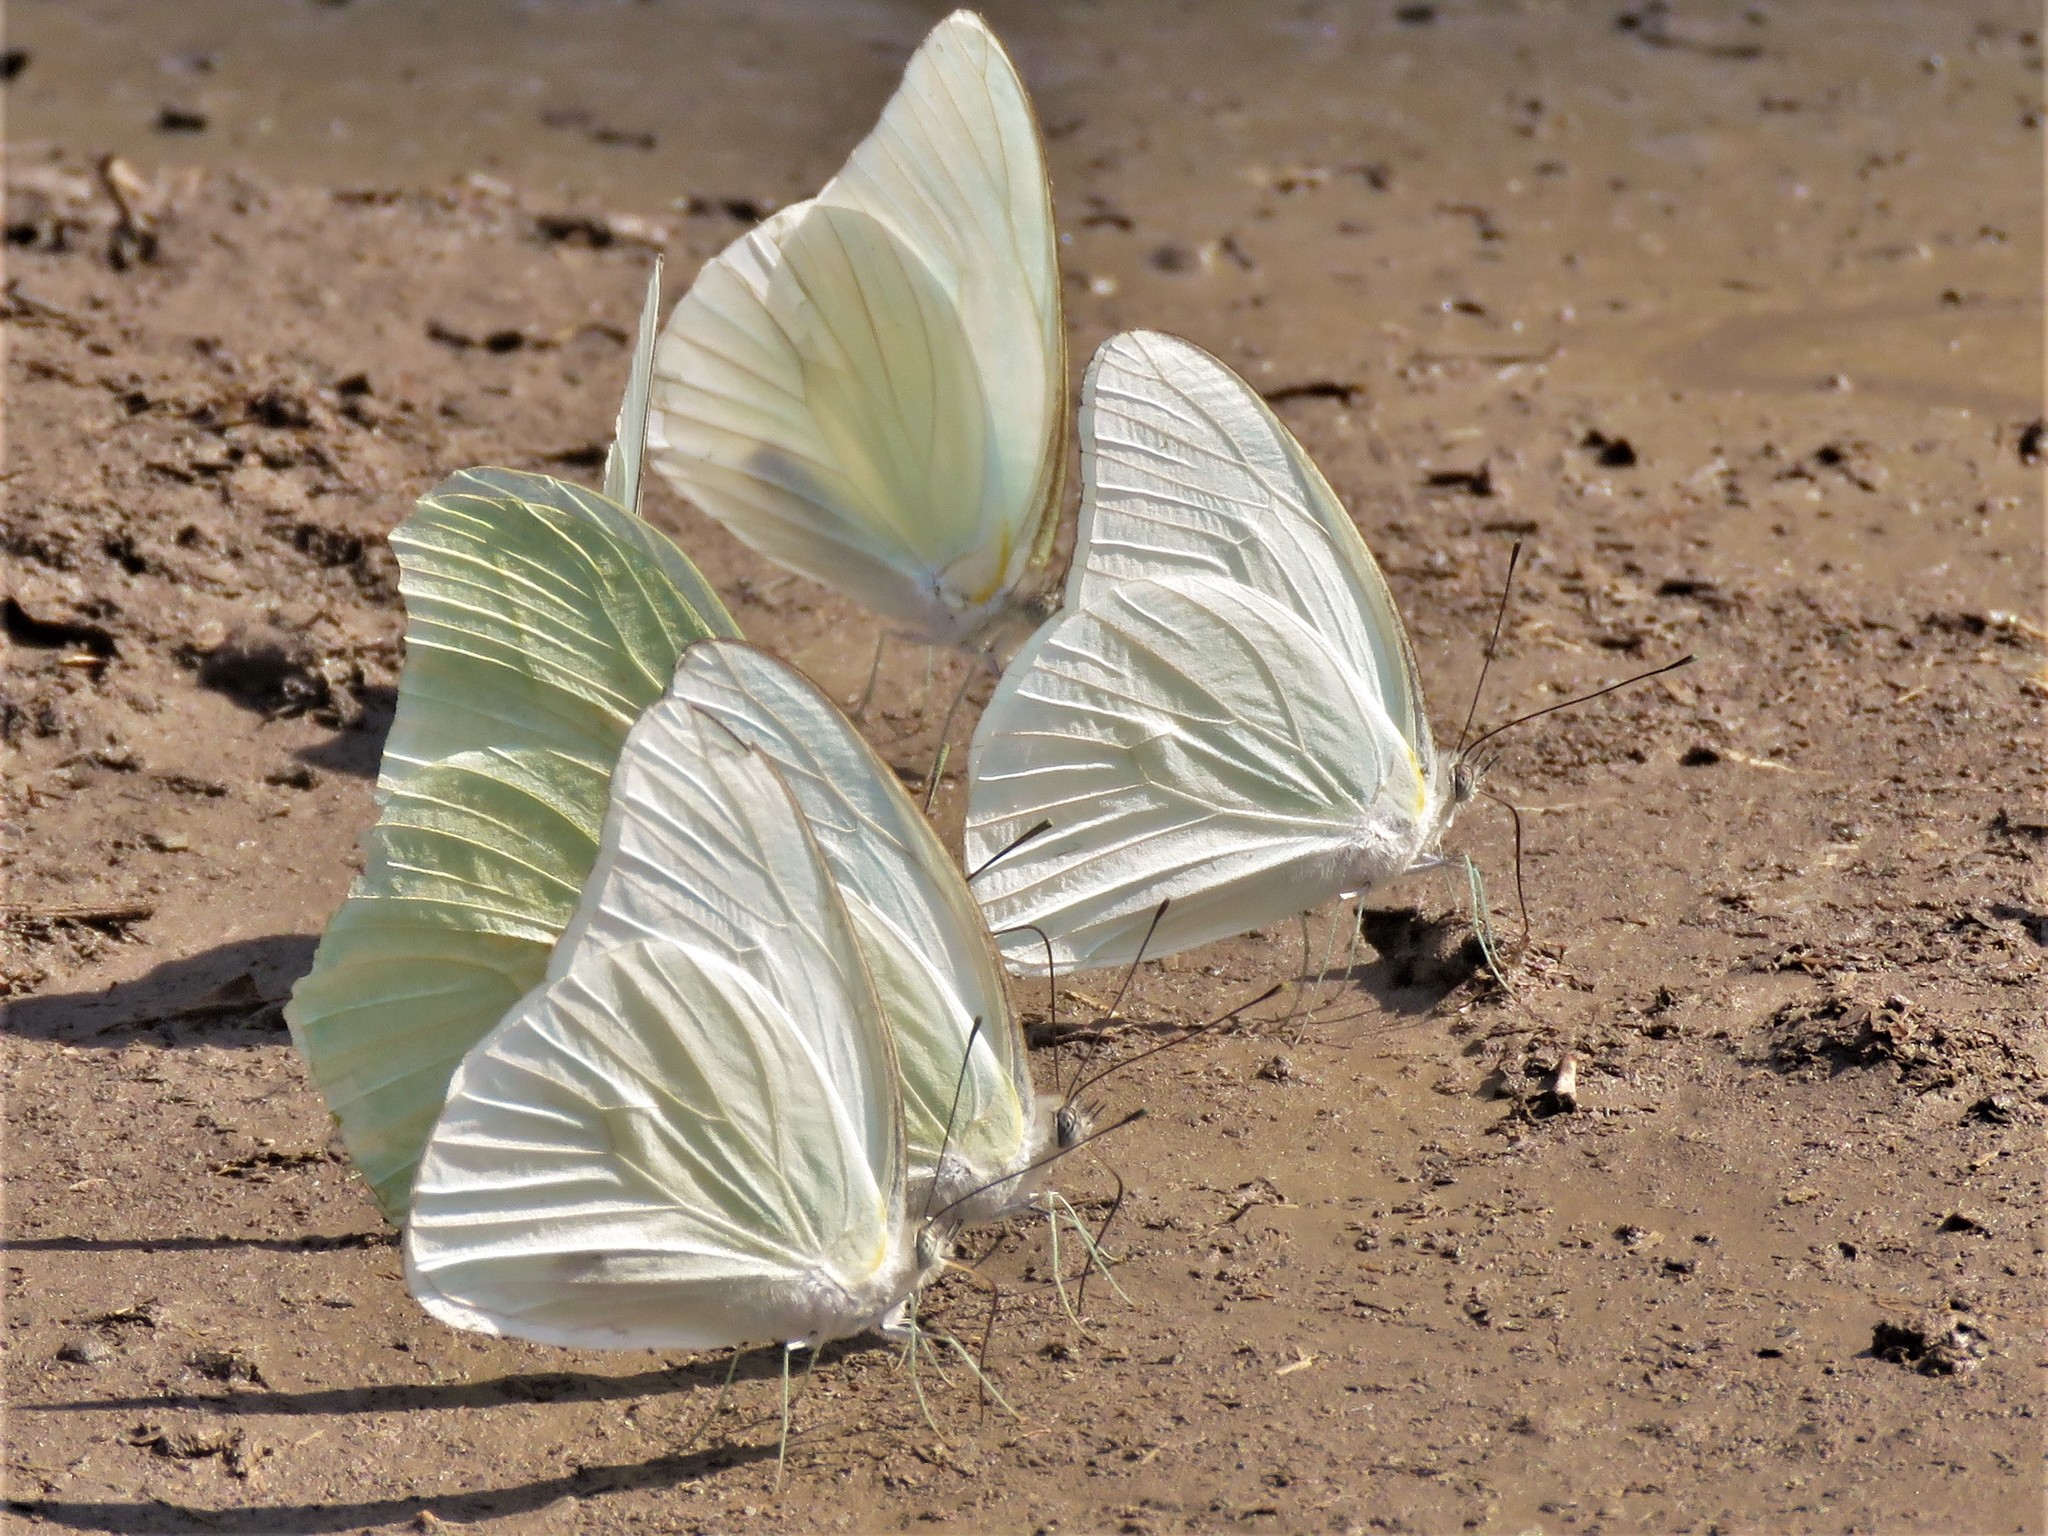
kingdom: Animalia
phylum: Arthropoda
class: Insecta
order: Lepidoptera
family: Pieridae
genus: Glutophrissa
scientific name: Glutophrissa drusilla
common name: Florida white
